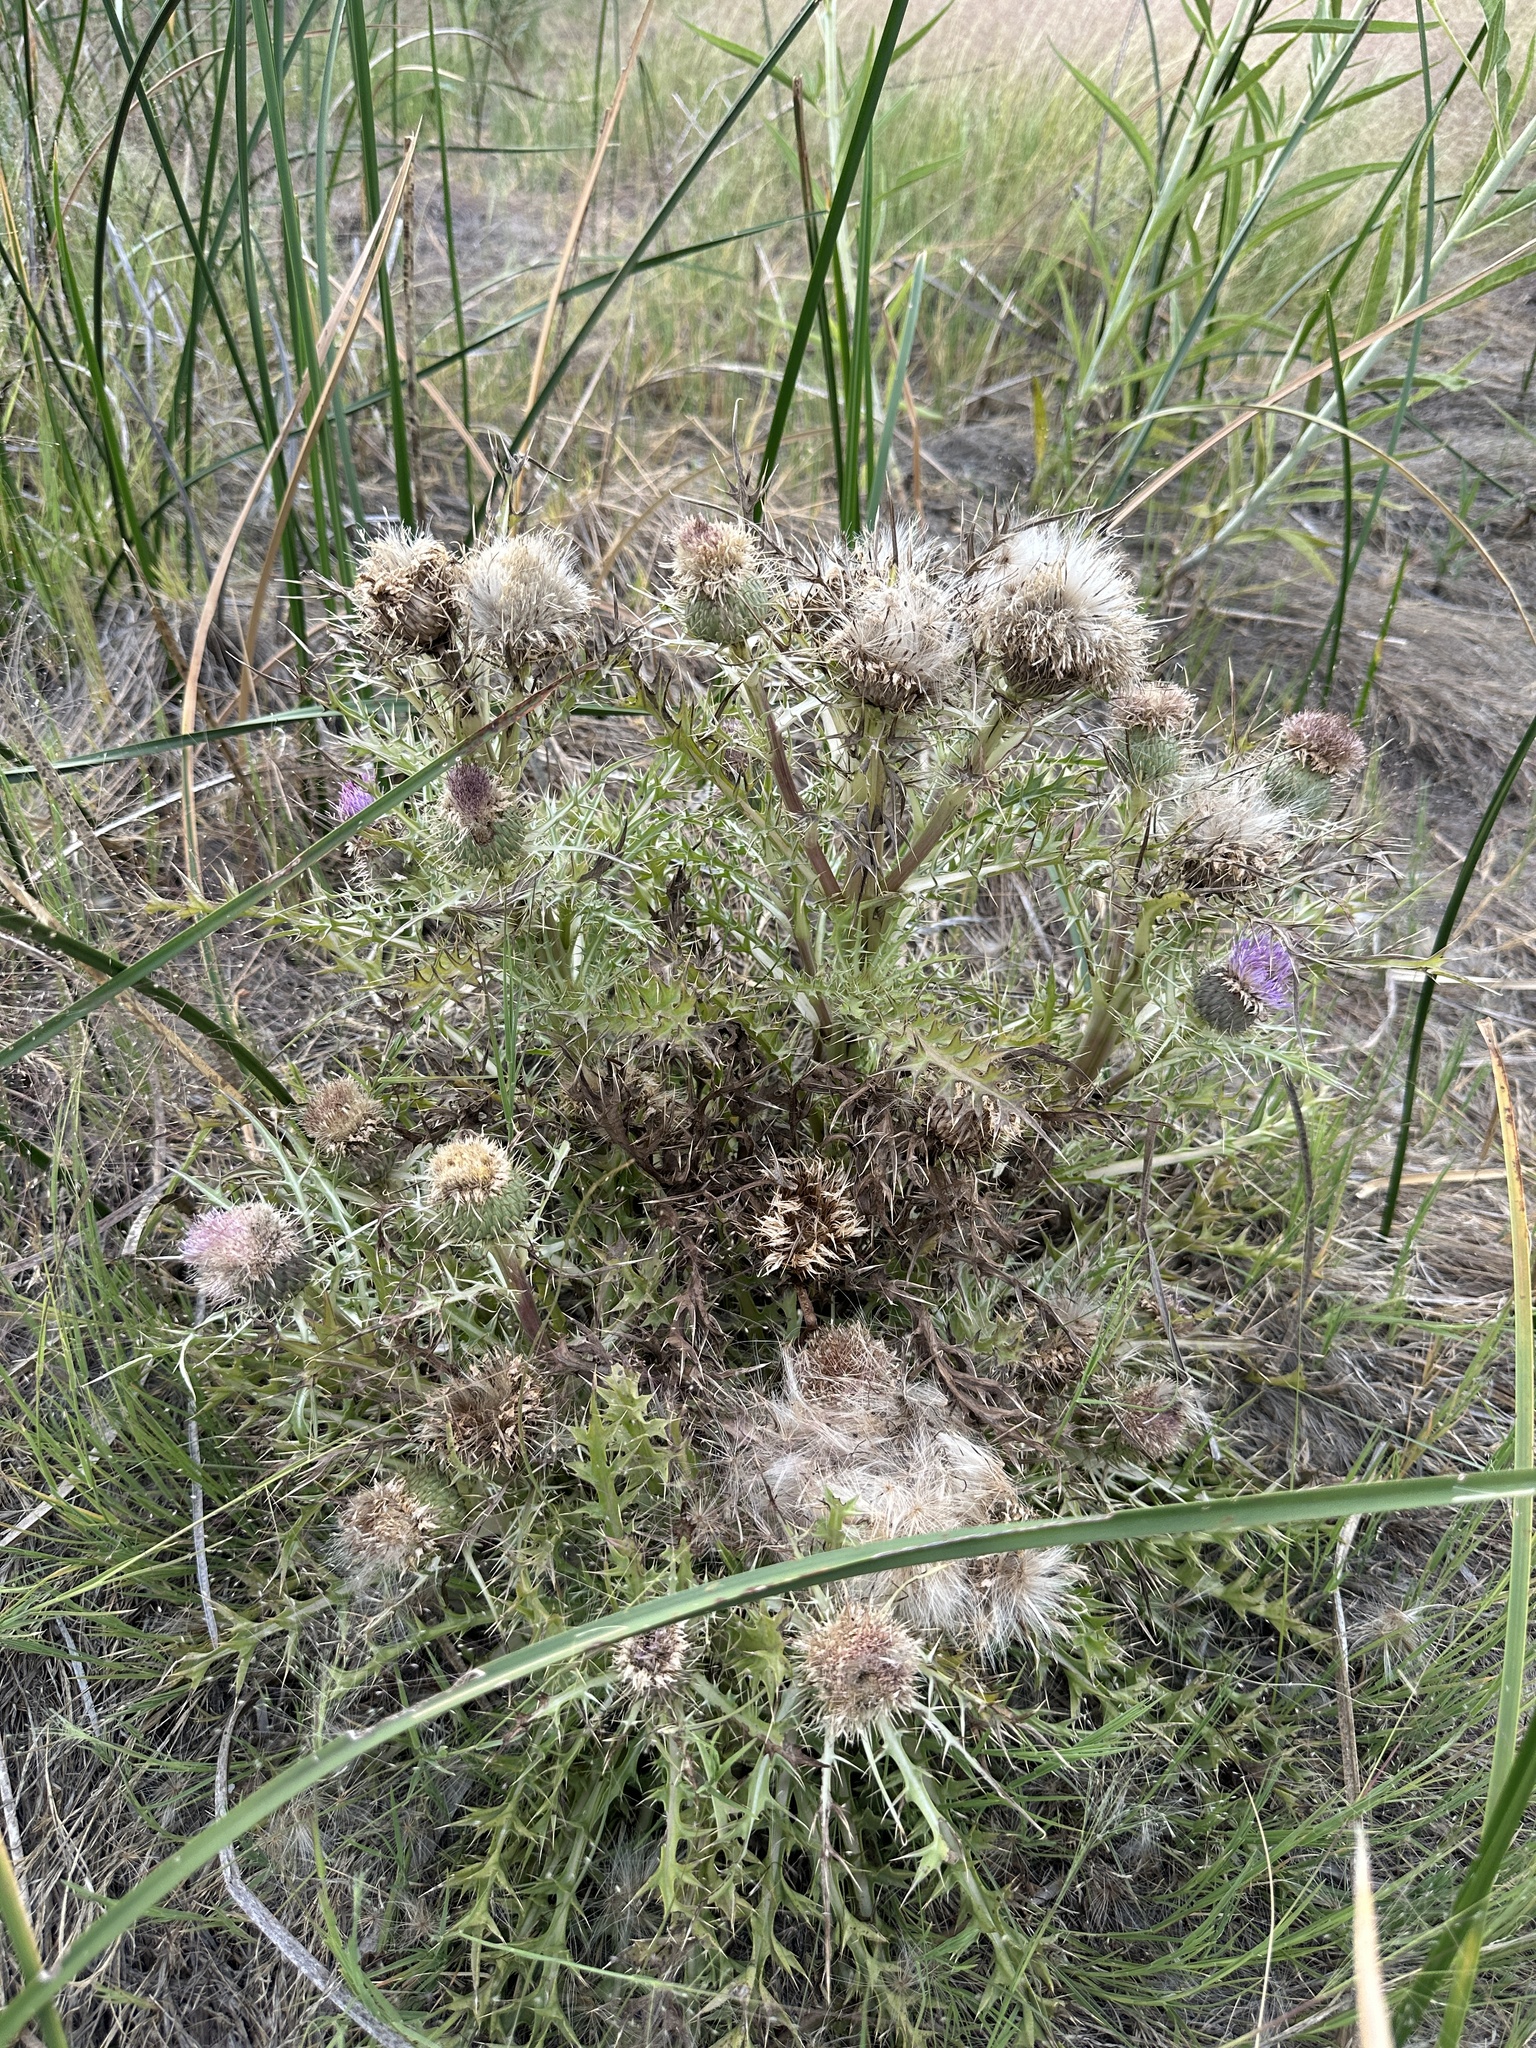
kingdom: Plantae
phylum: Tracheophyta
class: Magnoliopsida
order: Asterales
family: Asteraceae
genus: Cirsium
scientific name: Cirsium scariosum
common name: Meadow thistle
